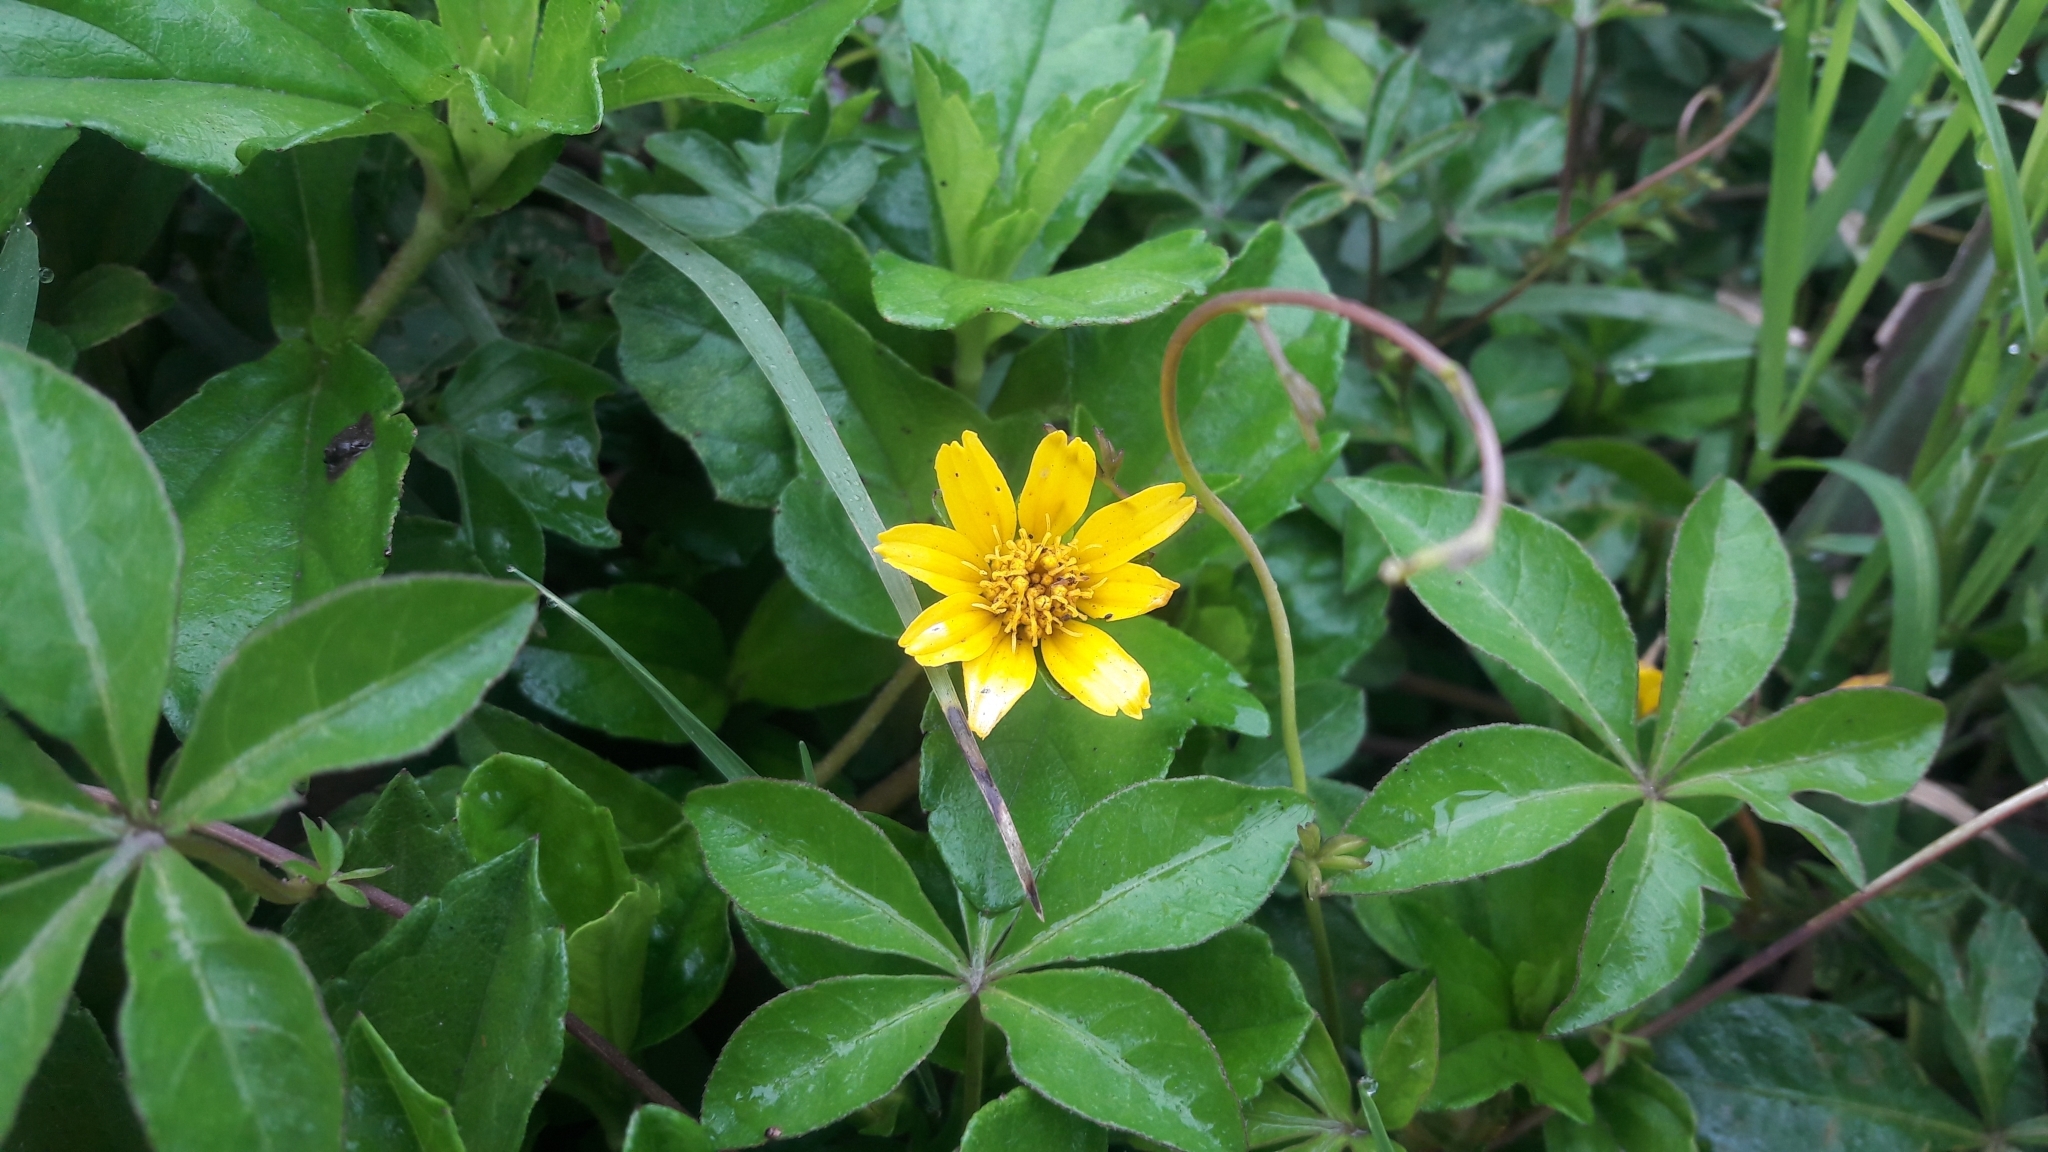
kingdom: Plantae
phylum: Tracheophyta
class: Magnoliopsida
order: Asterales
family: Asteraceae
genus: Sphagneticola
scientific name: Sphagneticola trilobata
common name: Bay biscayne creeping-oxeye
